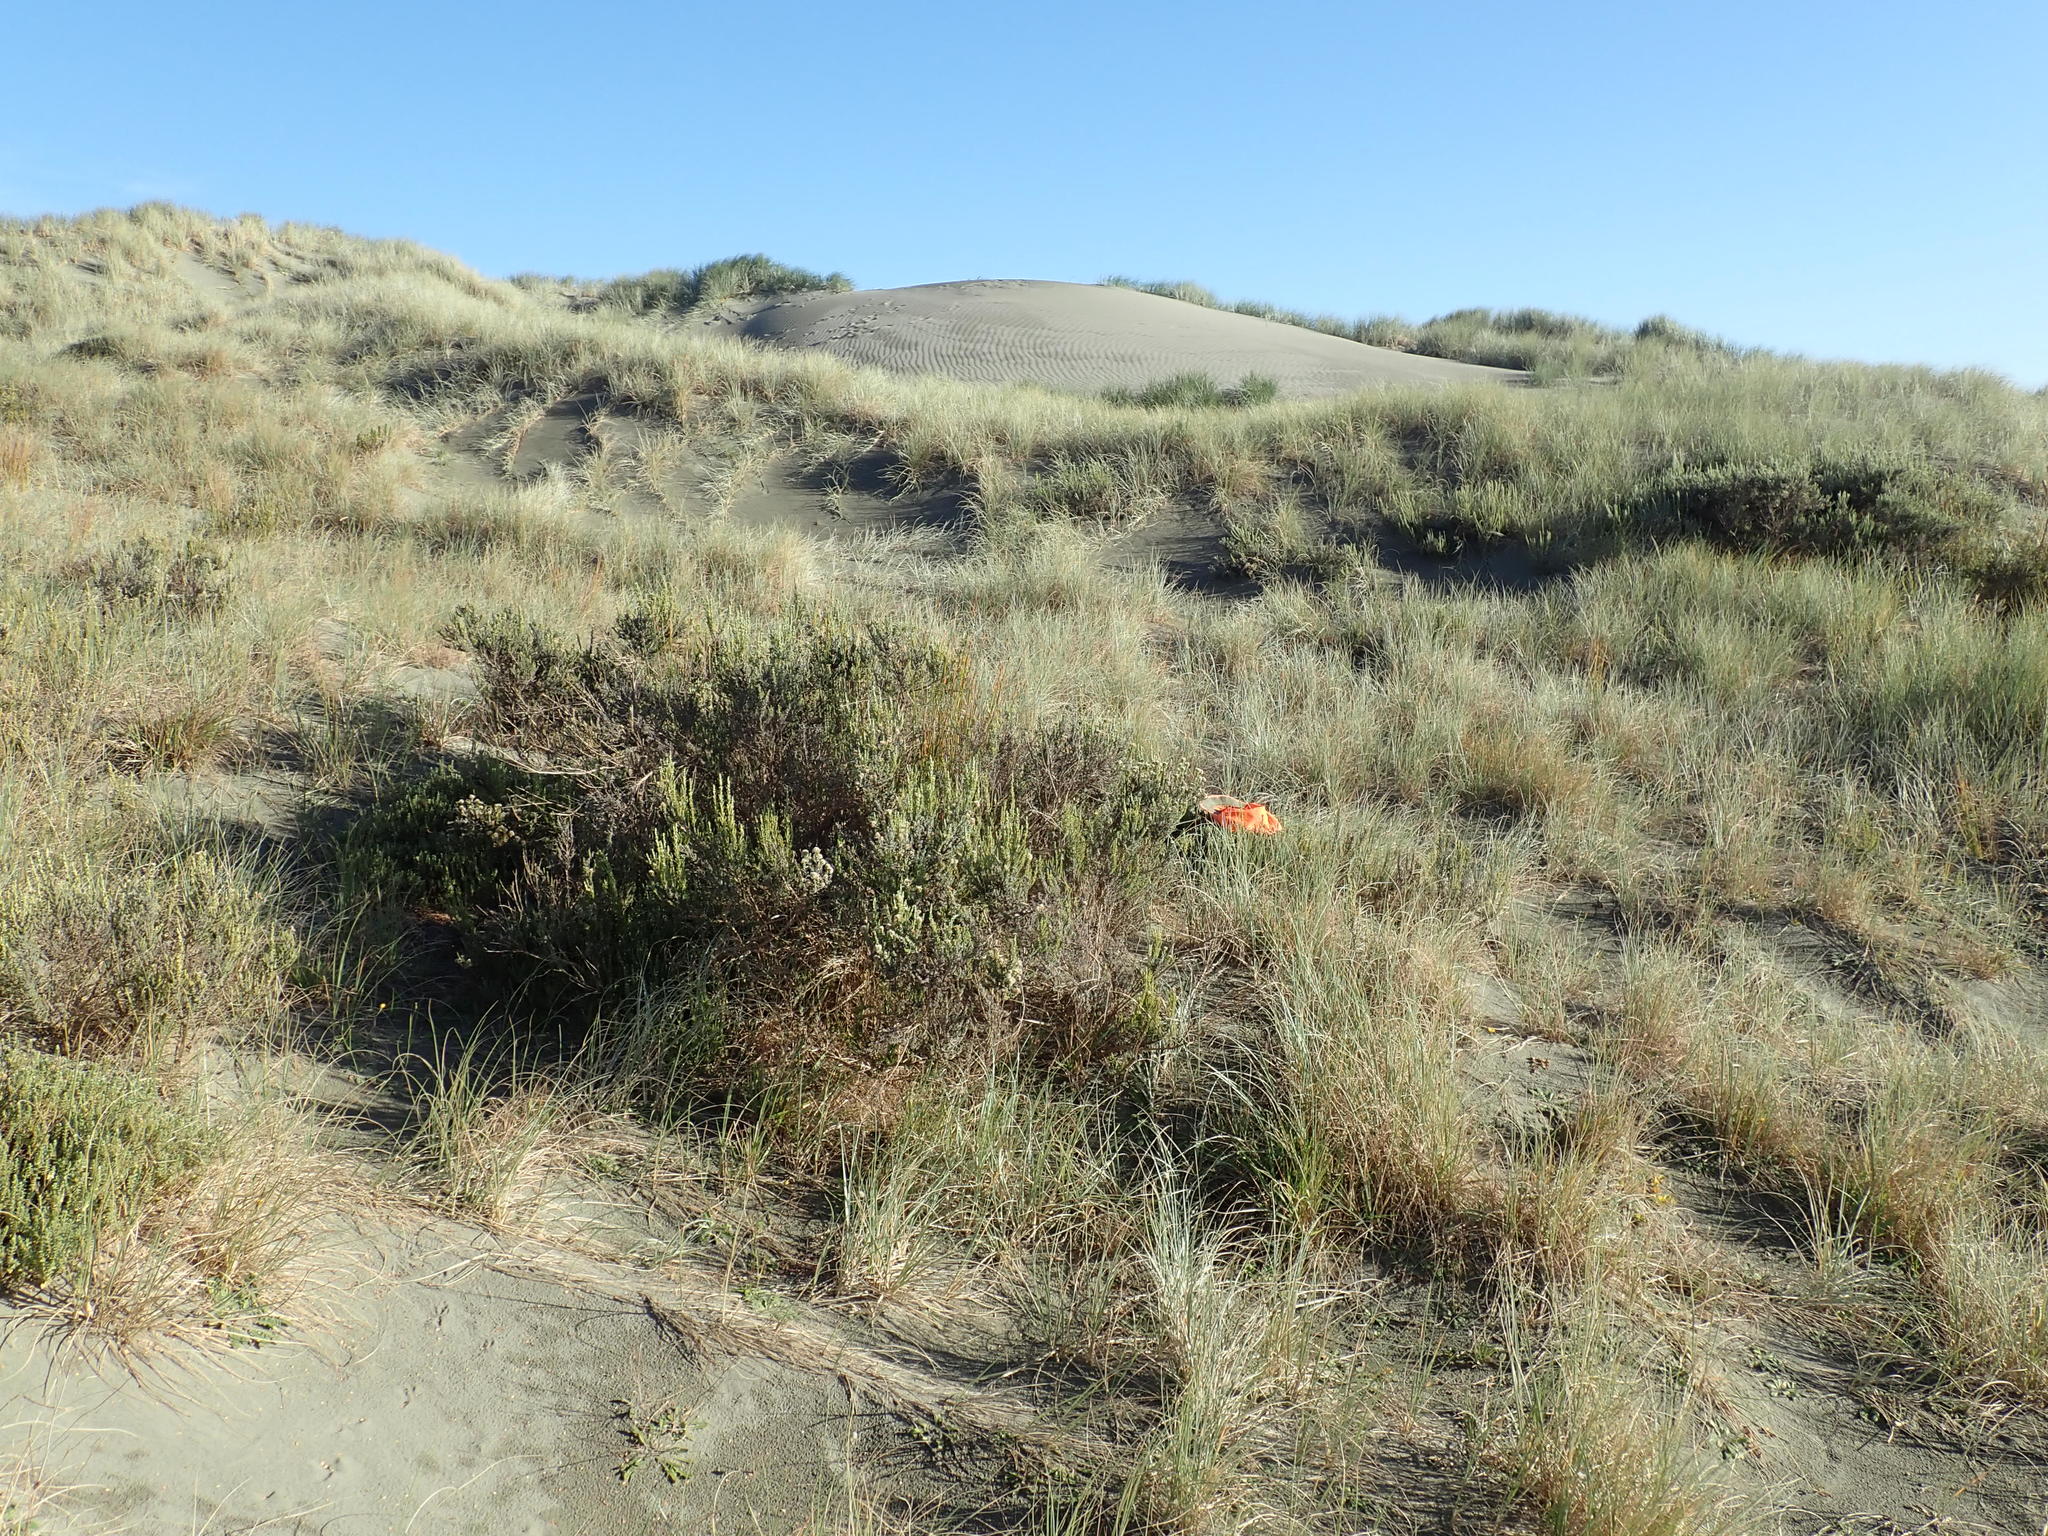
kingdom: Plantae
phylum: Tracheophyta
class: Magnoliopsida
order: Malvales
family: Thymelaeaceae
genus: Pimelea
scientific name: Pimelea villosa
